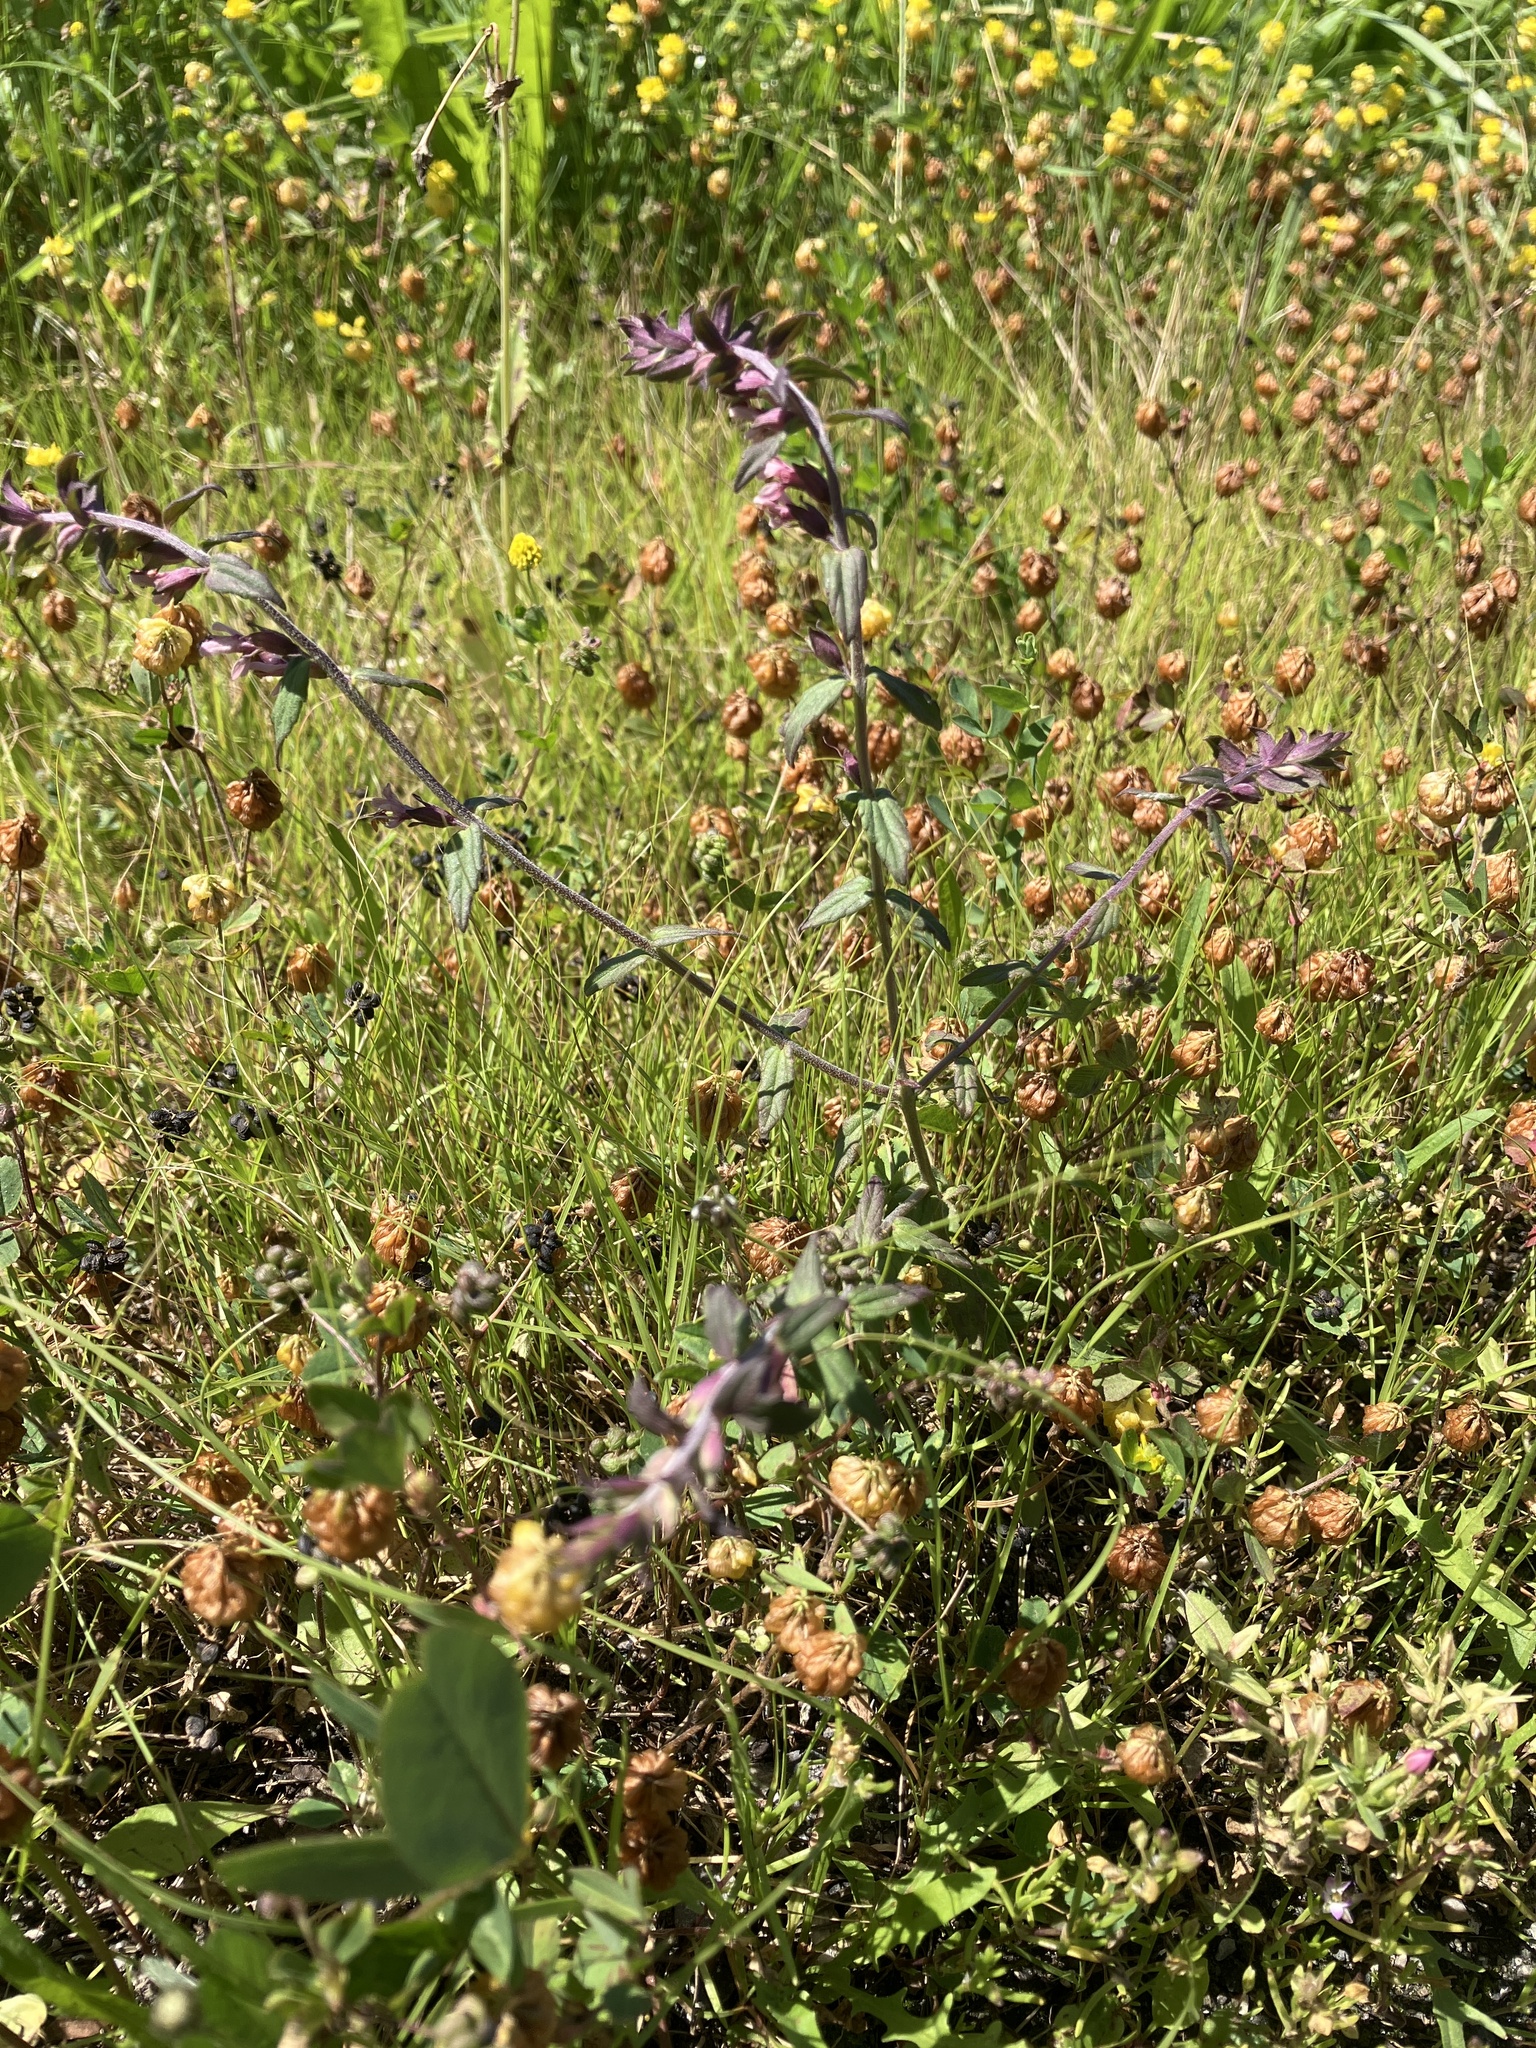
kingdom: Plantae
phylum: Tracheophyta
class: Magnoliopsida
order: Lamiales
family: Orobanchaceae
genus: Odontites
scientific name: Odontites vulgaris
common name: Broomrape
